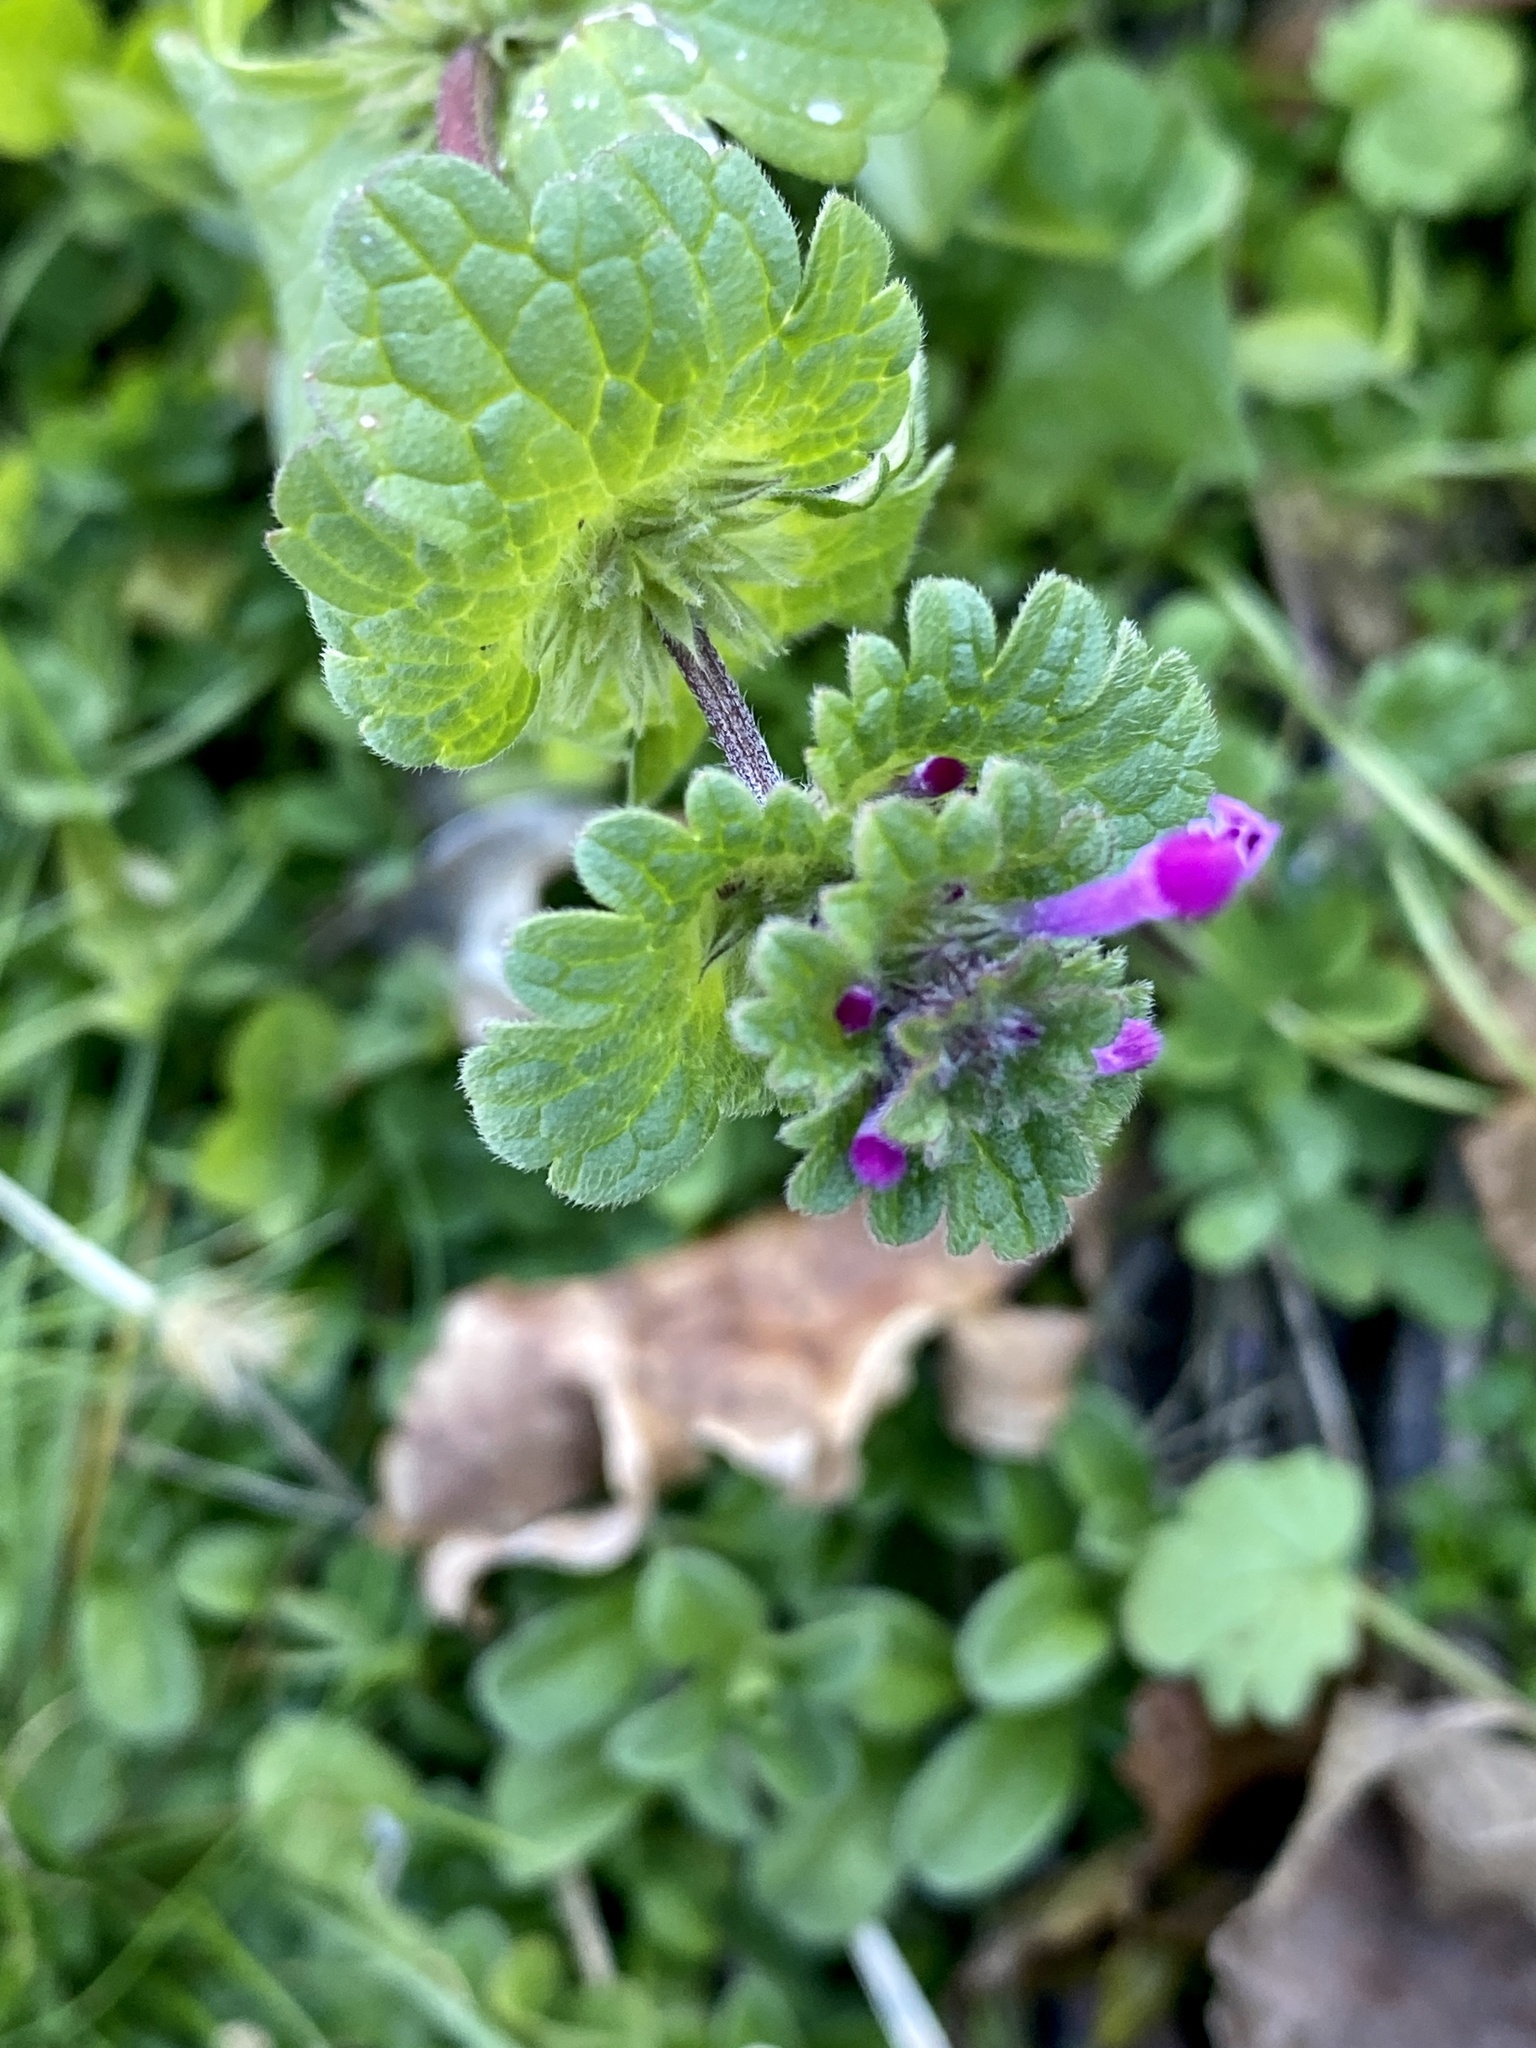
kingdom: Plantae
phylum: Tracheophyta
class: Magnoliopsida
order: Lamiales
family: Lamiaceae
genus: Lamium
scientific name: Lamium amplexicaule
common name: Henbit dead-nettle
